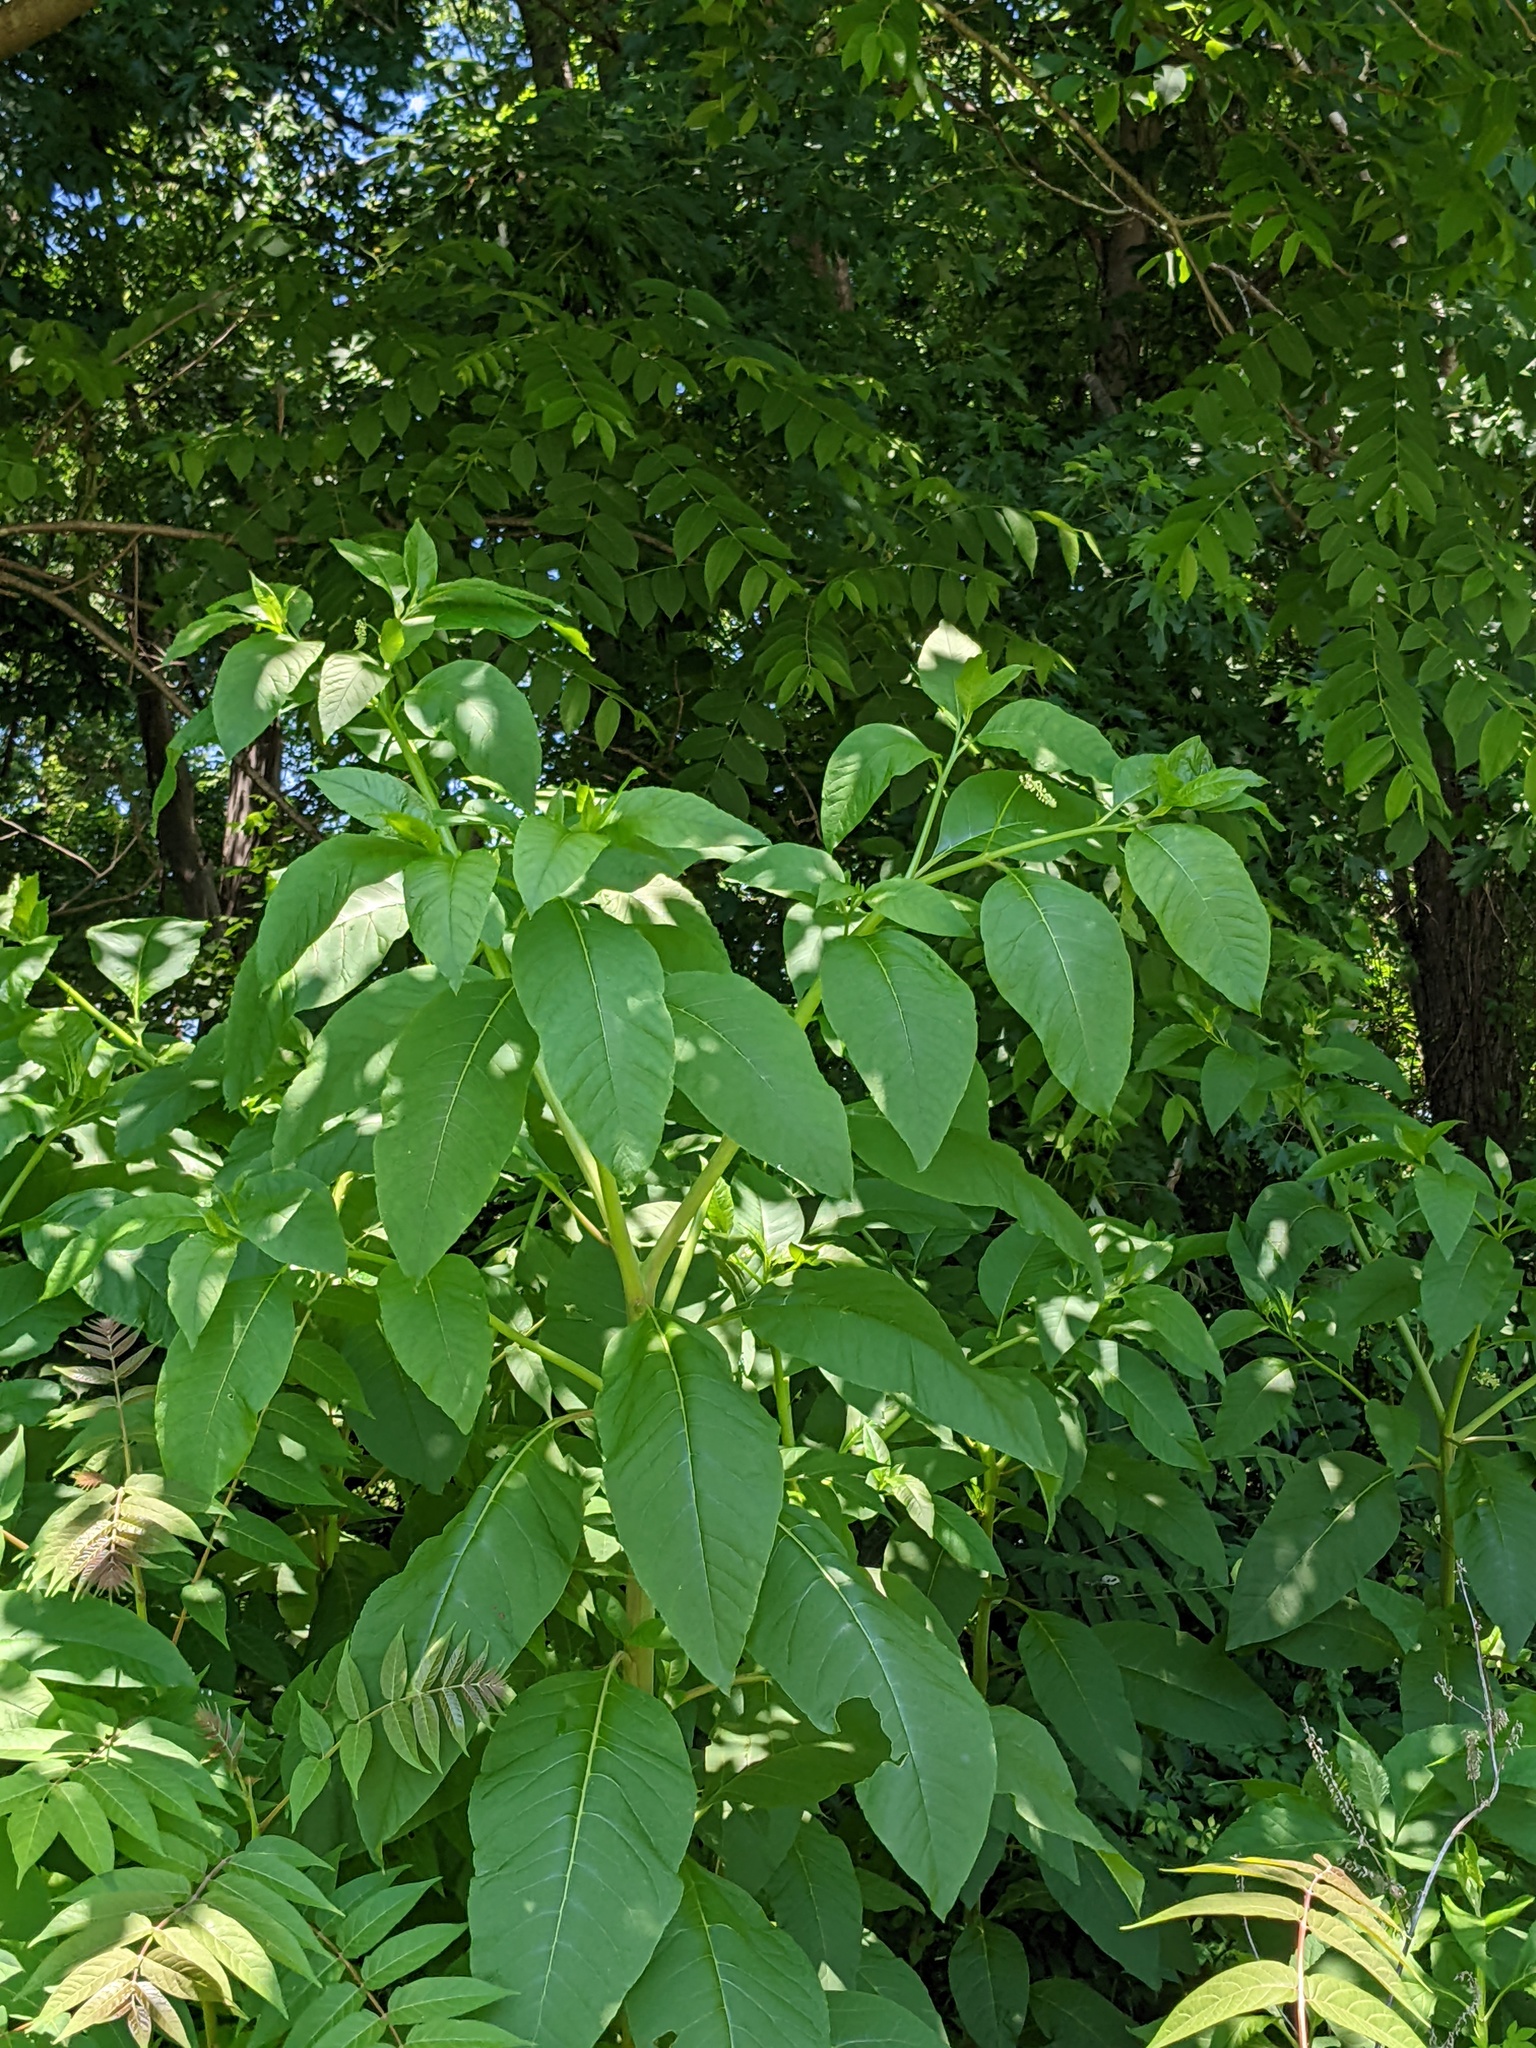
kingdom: Plantae
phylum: Tracheophyta
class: Magnoliopsida
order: Caryophyllales
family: Phytolaccaceae
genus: Phytolacca
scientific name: Phytolacca americana
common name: American pokeweed
